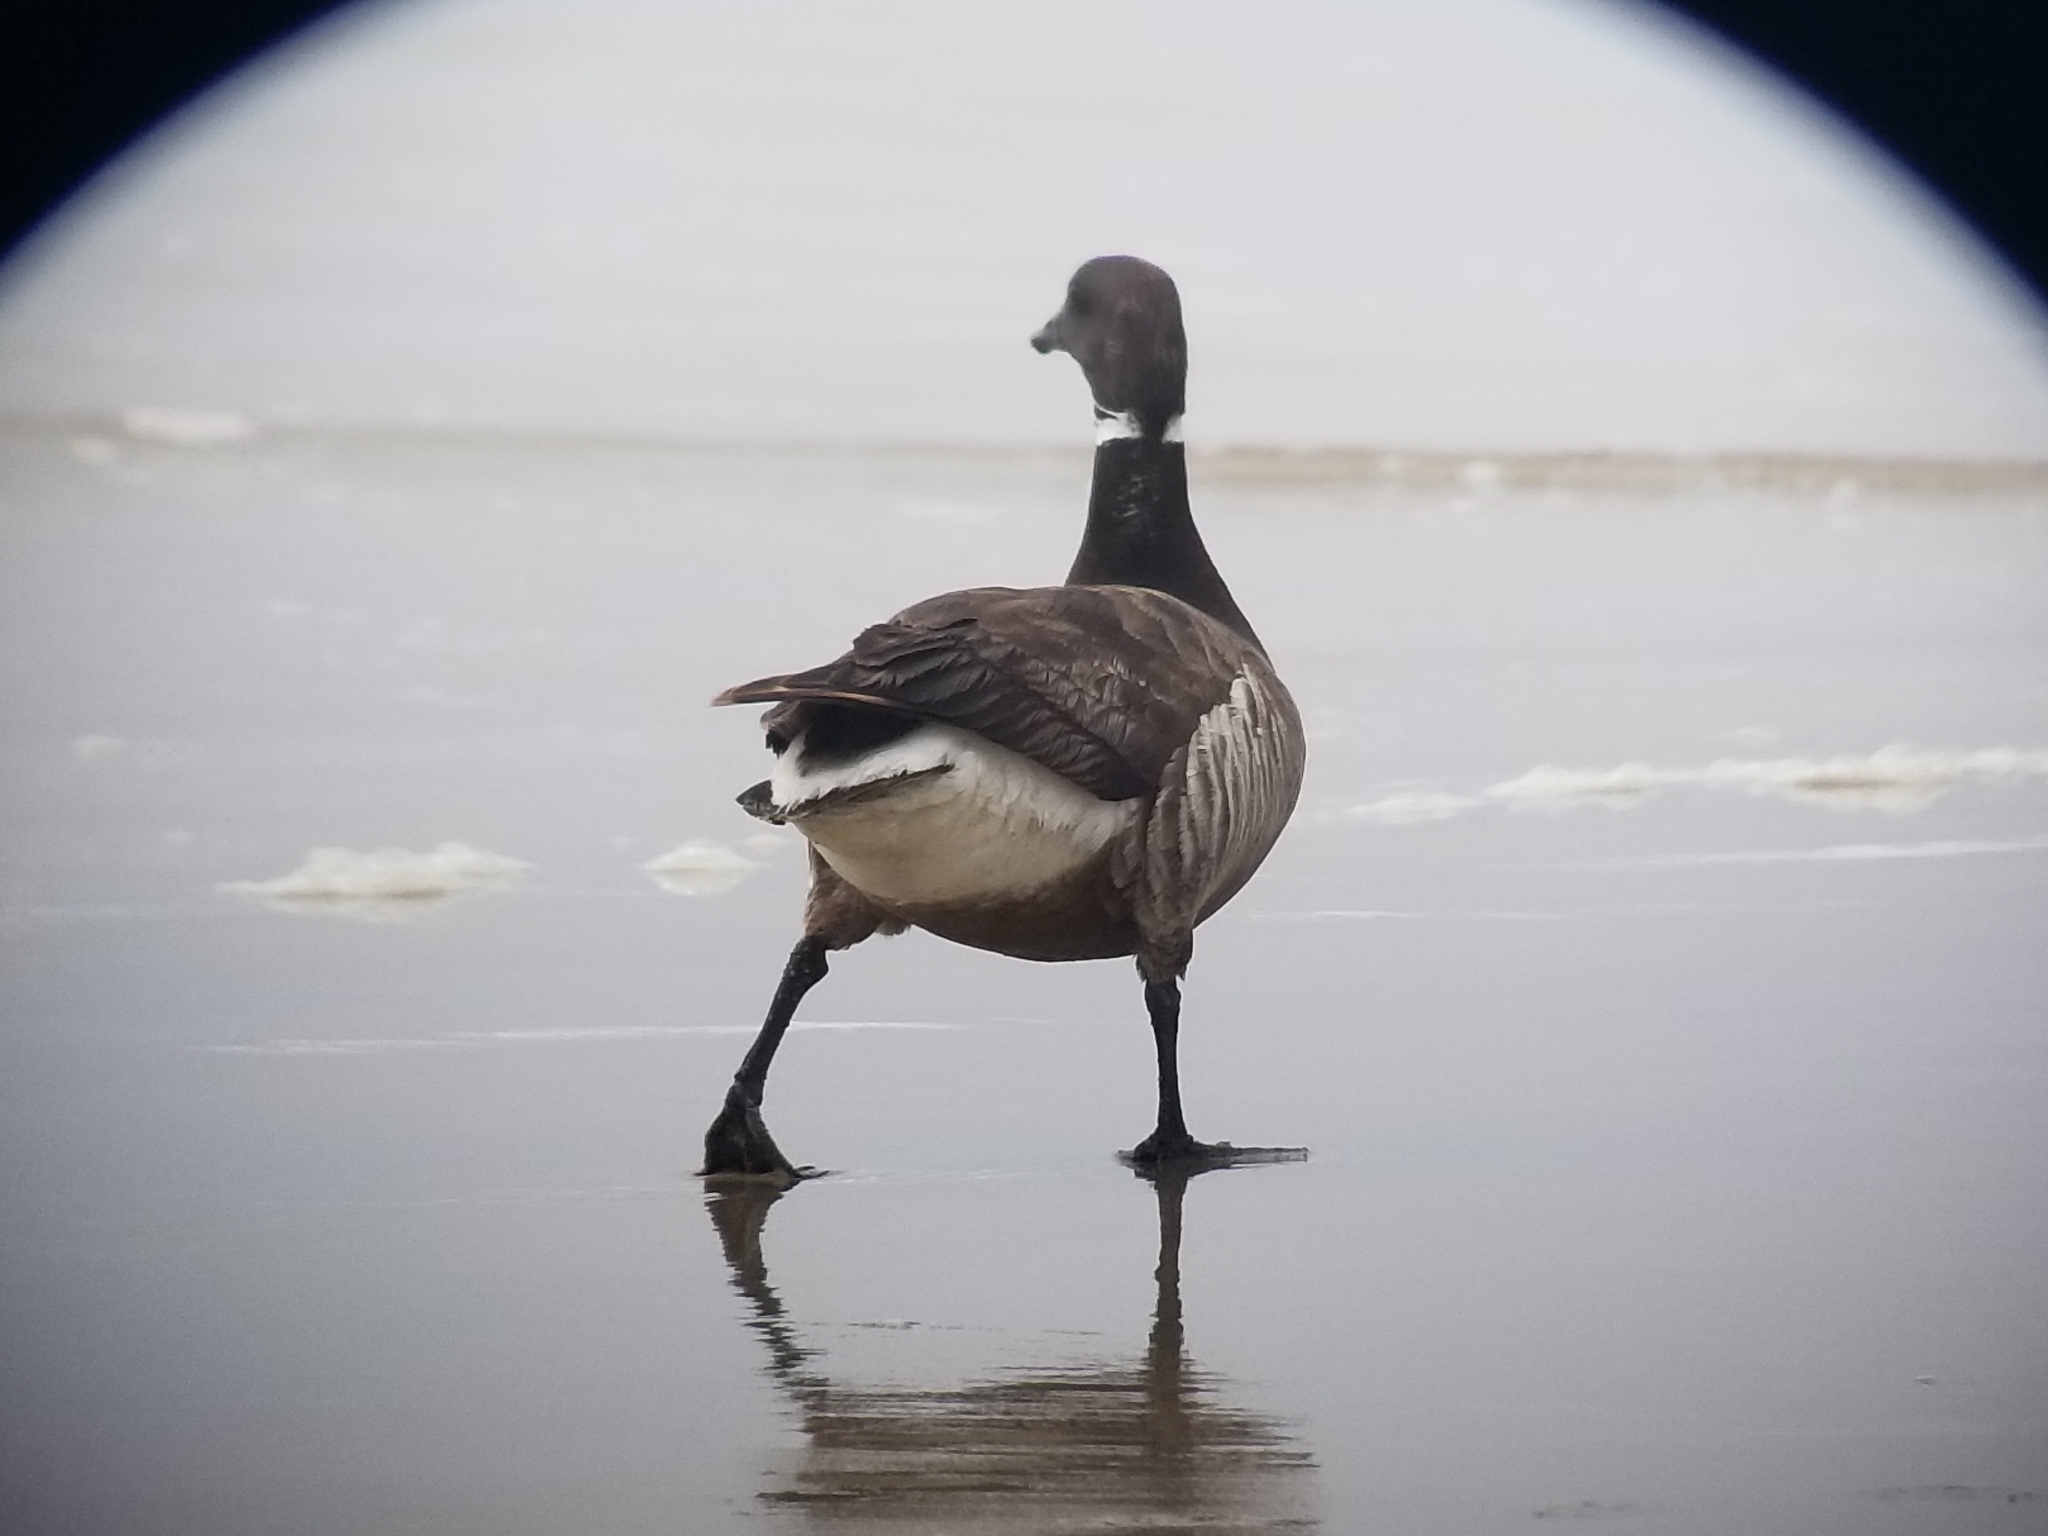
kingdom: Animalia
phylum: Chordata
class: Aves
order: Anseriformes
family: Anatidae
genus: Branta
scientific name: Branta bernicla
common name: Brant goose
